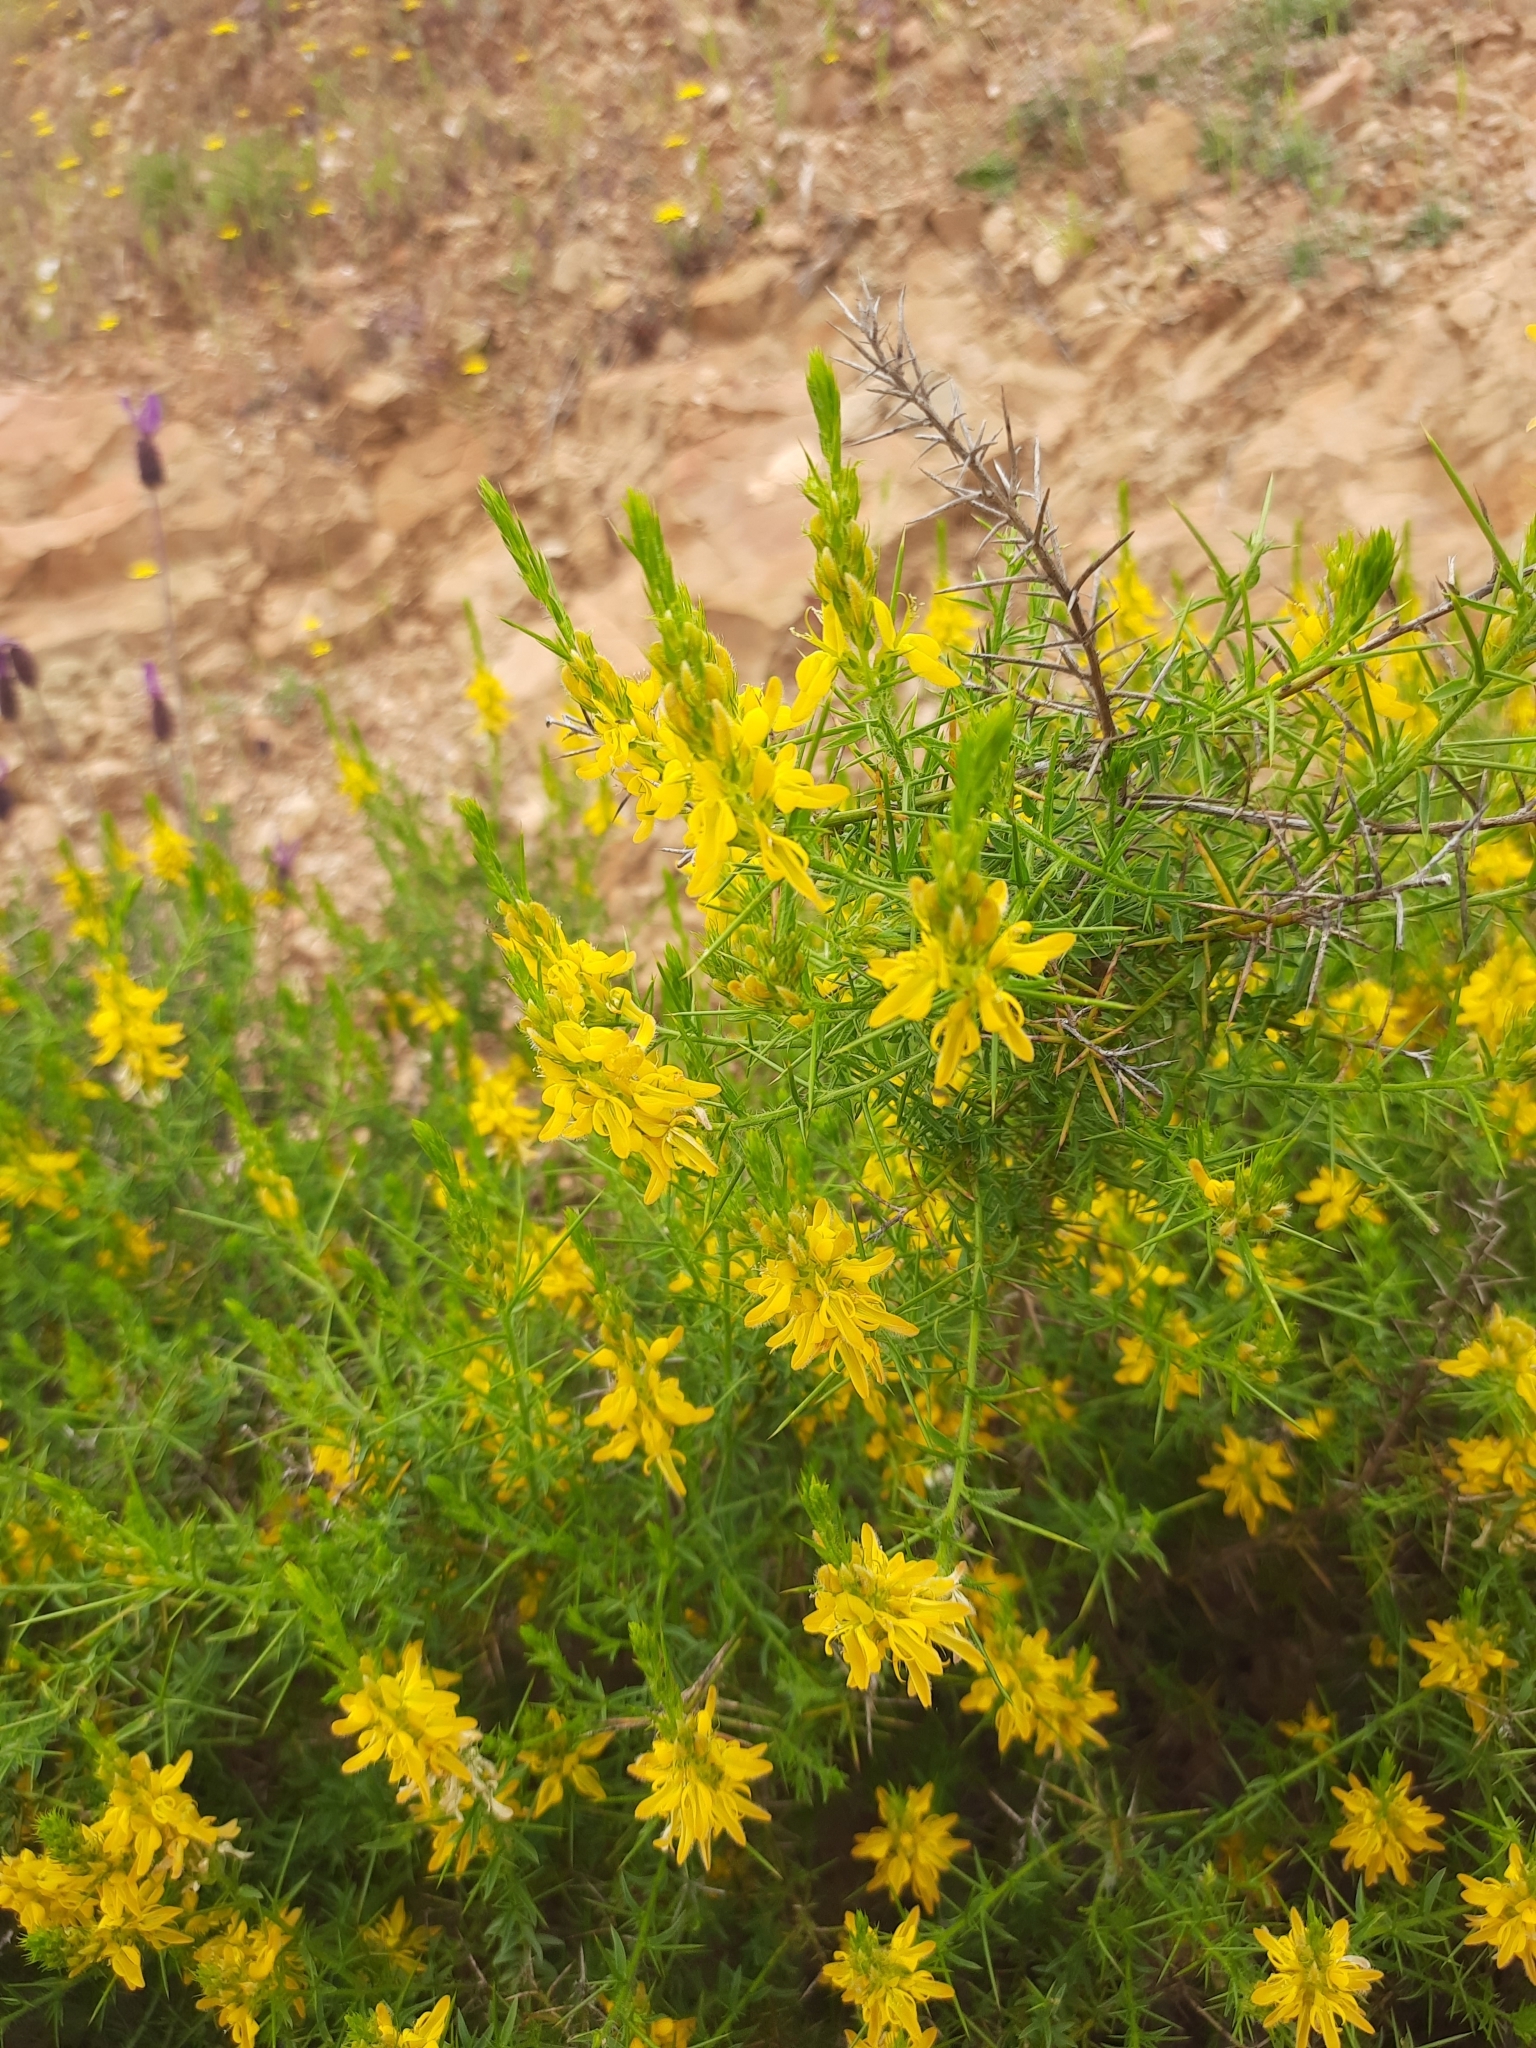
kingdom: Plantae
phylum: Tracheophyta
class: Magnoliopsida
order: Fabales
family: Fabaceae
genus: Genista
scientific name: Genista hirsuta
